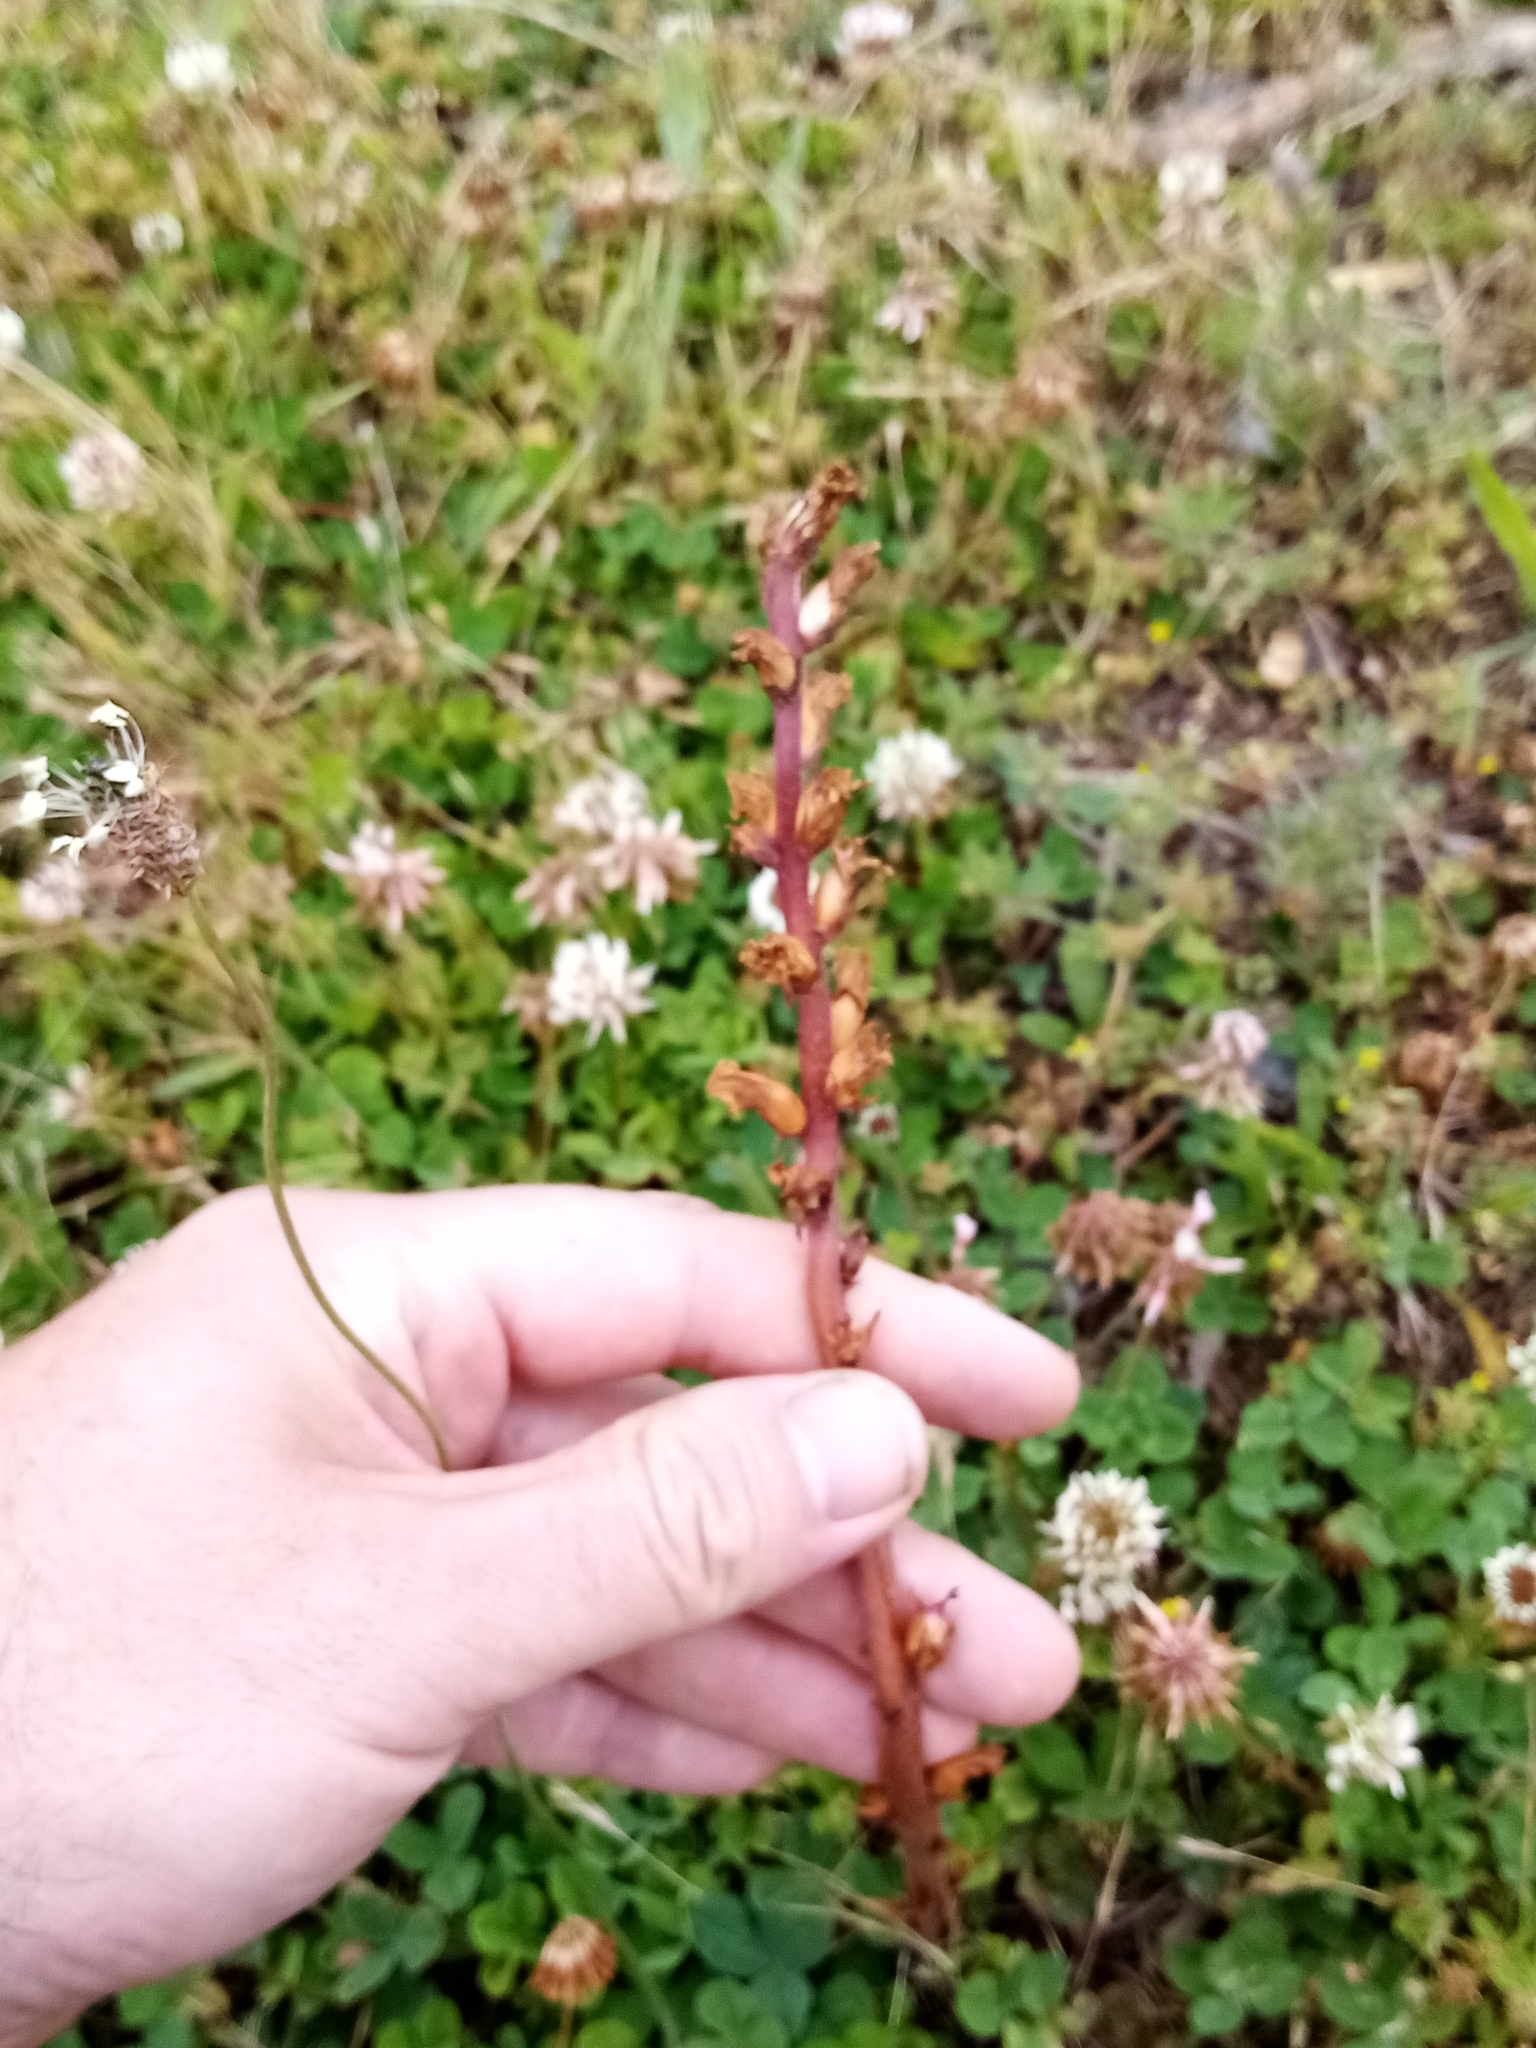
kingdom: Plantae
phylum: Tracheophyta
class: Magnoliopsida
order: Lamiales
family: Orobanchaceae
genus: Orobanche
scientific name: Orobanche minor
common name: Common broomrape
